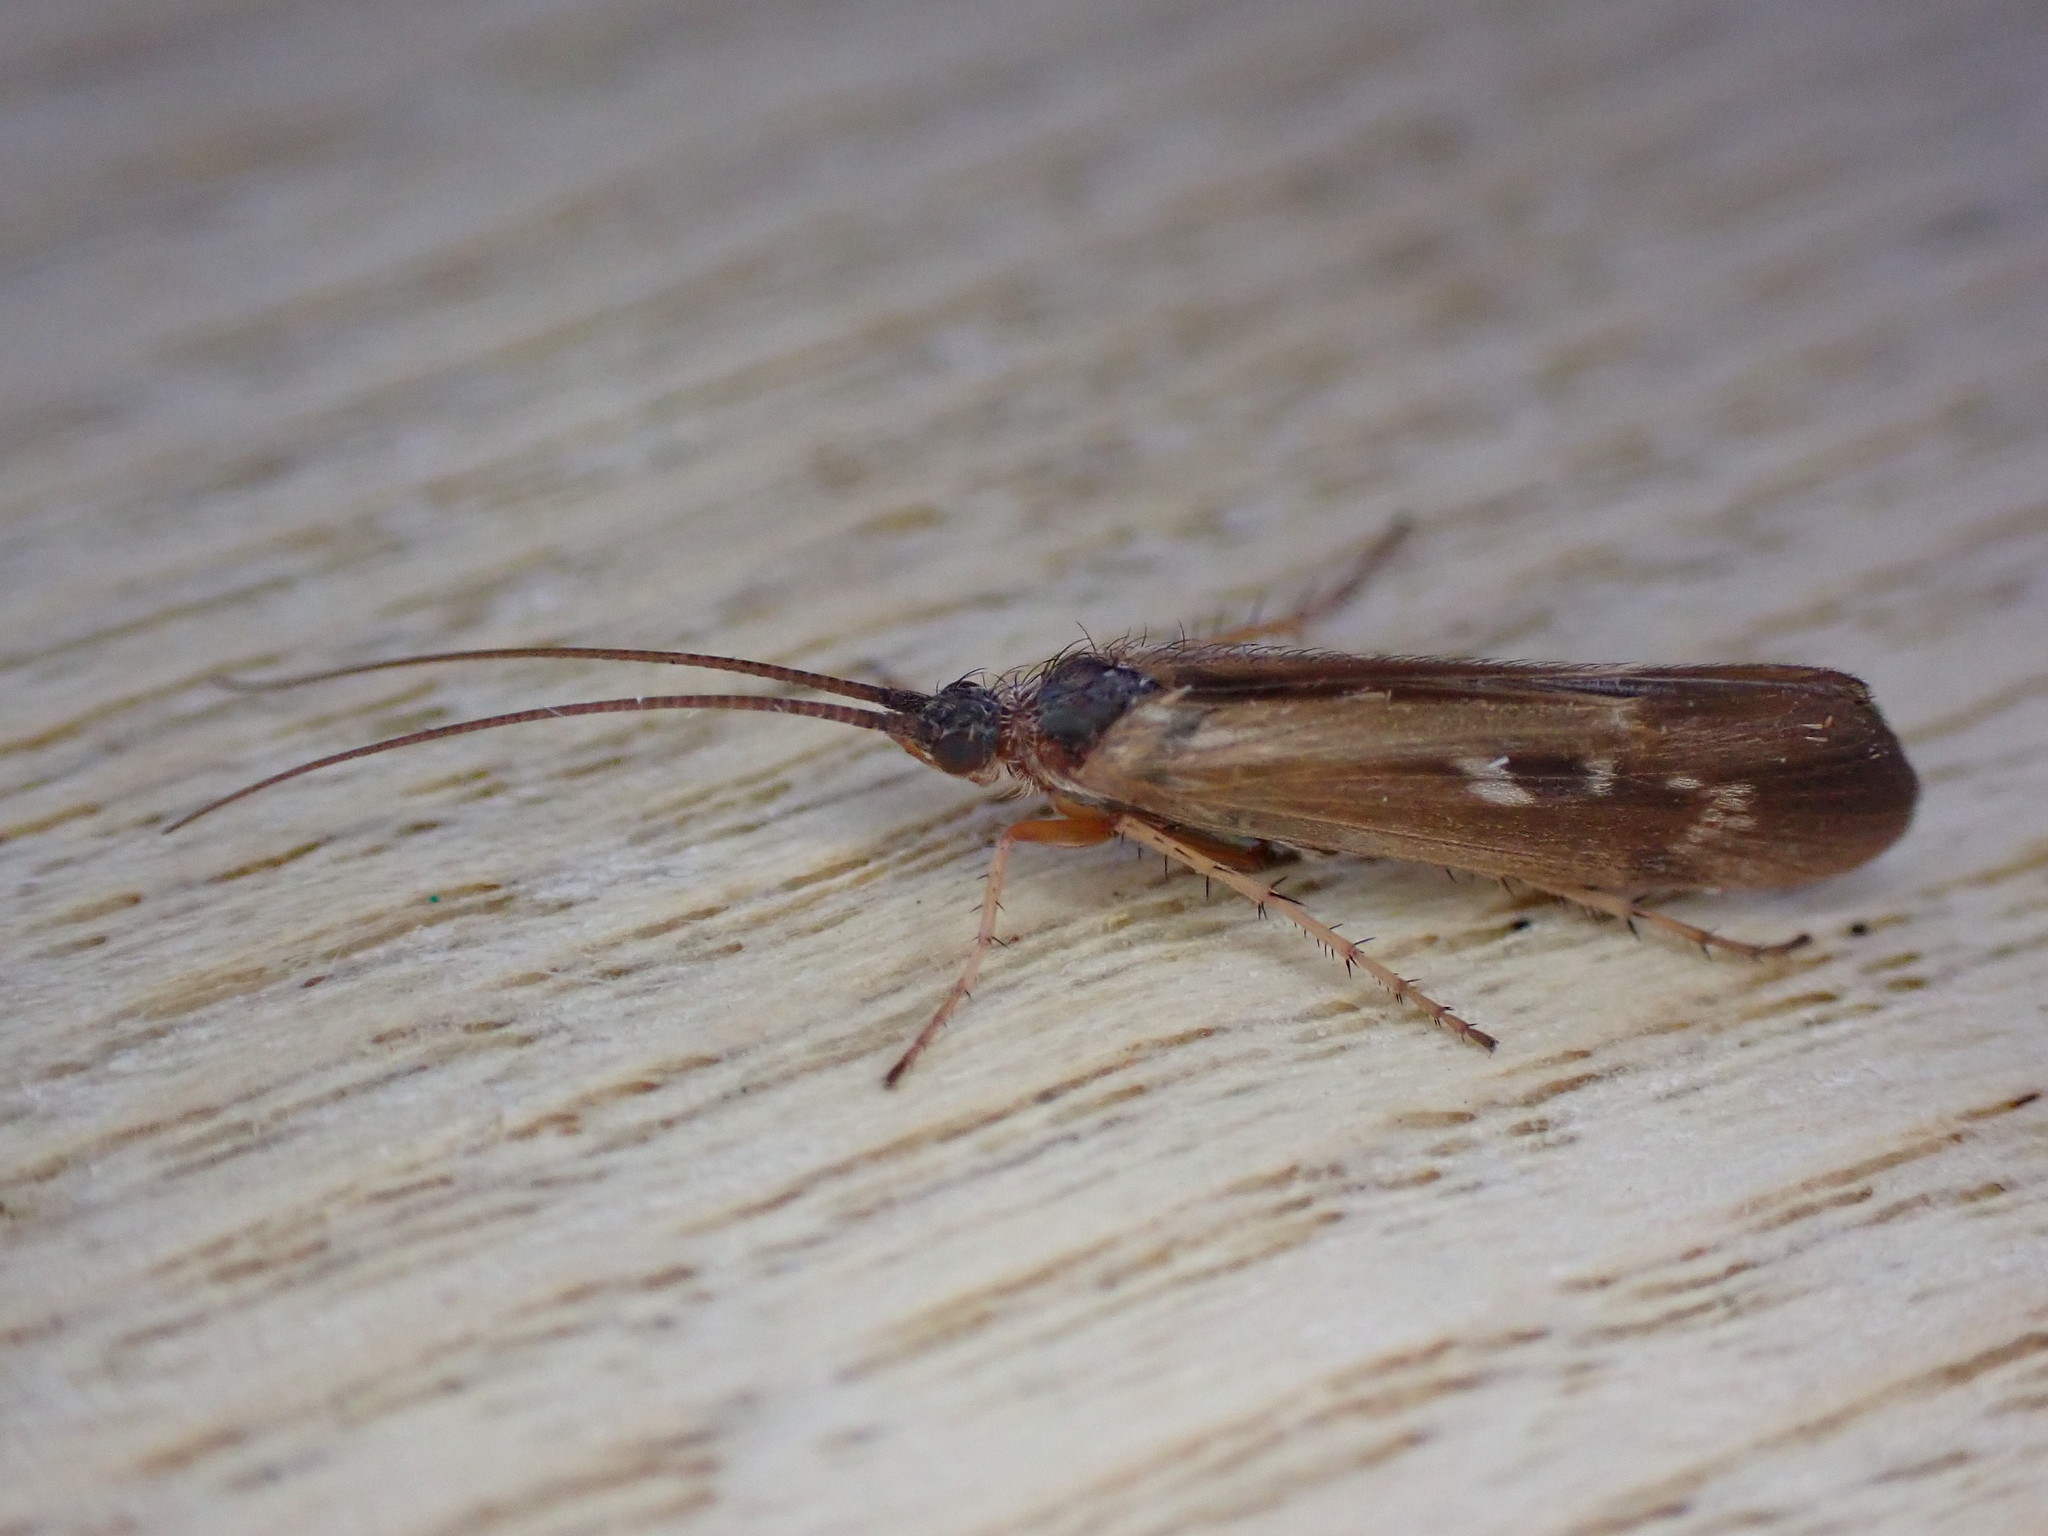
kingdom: Animalia
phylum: Arthropoda
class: Insecta
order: Trichoptera
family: Limnephilidae
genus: Limnephilus
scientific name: Limnephilus auricula
